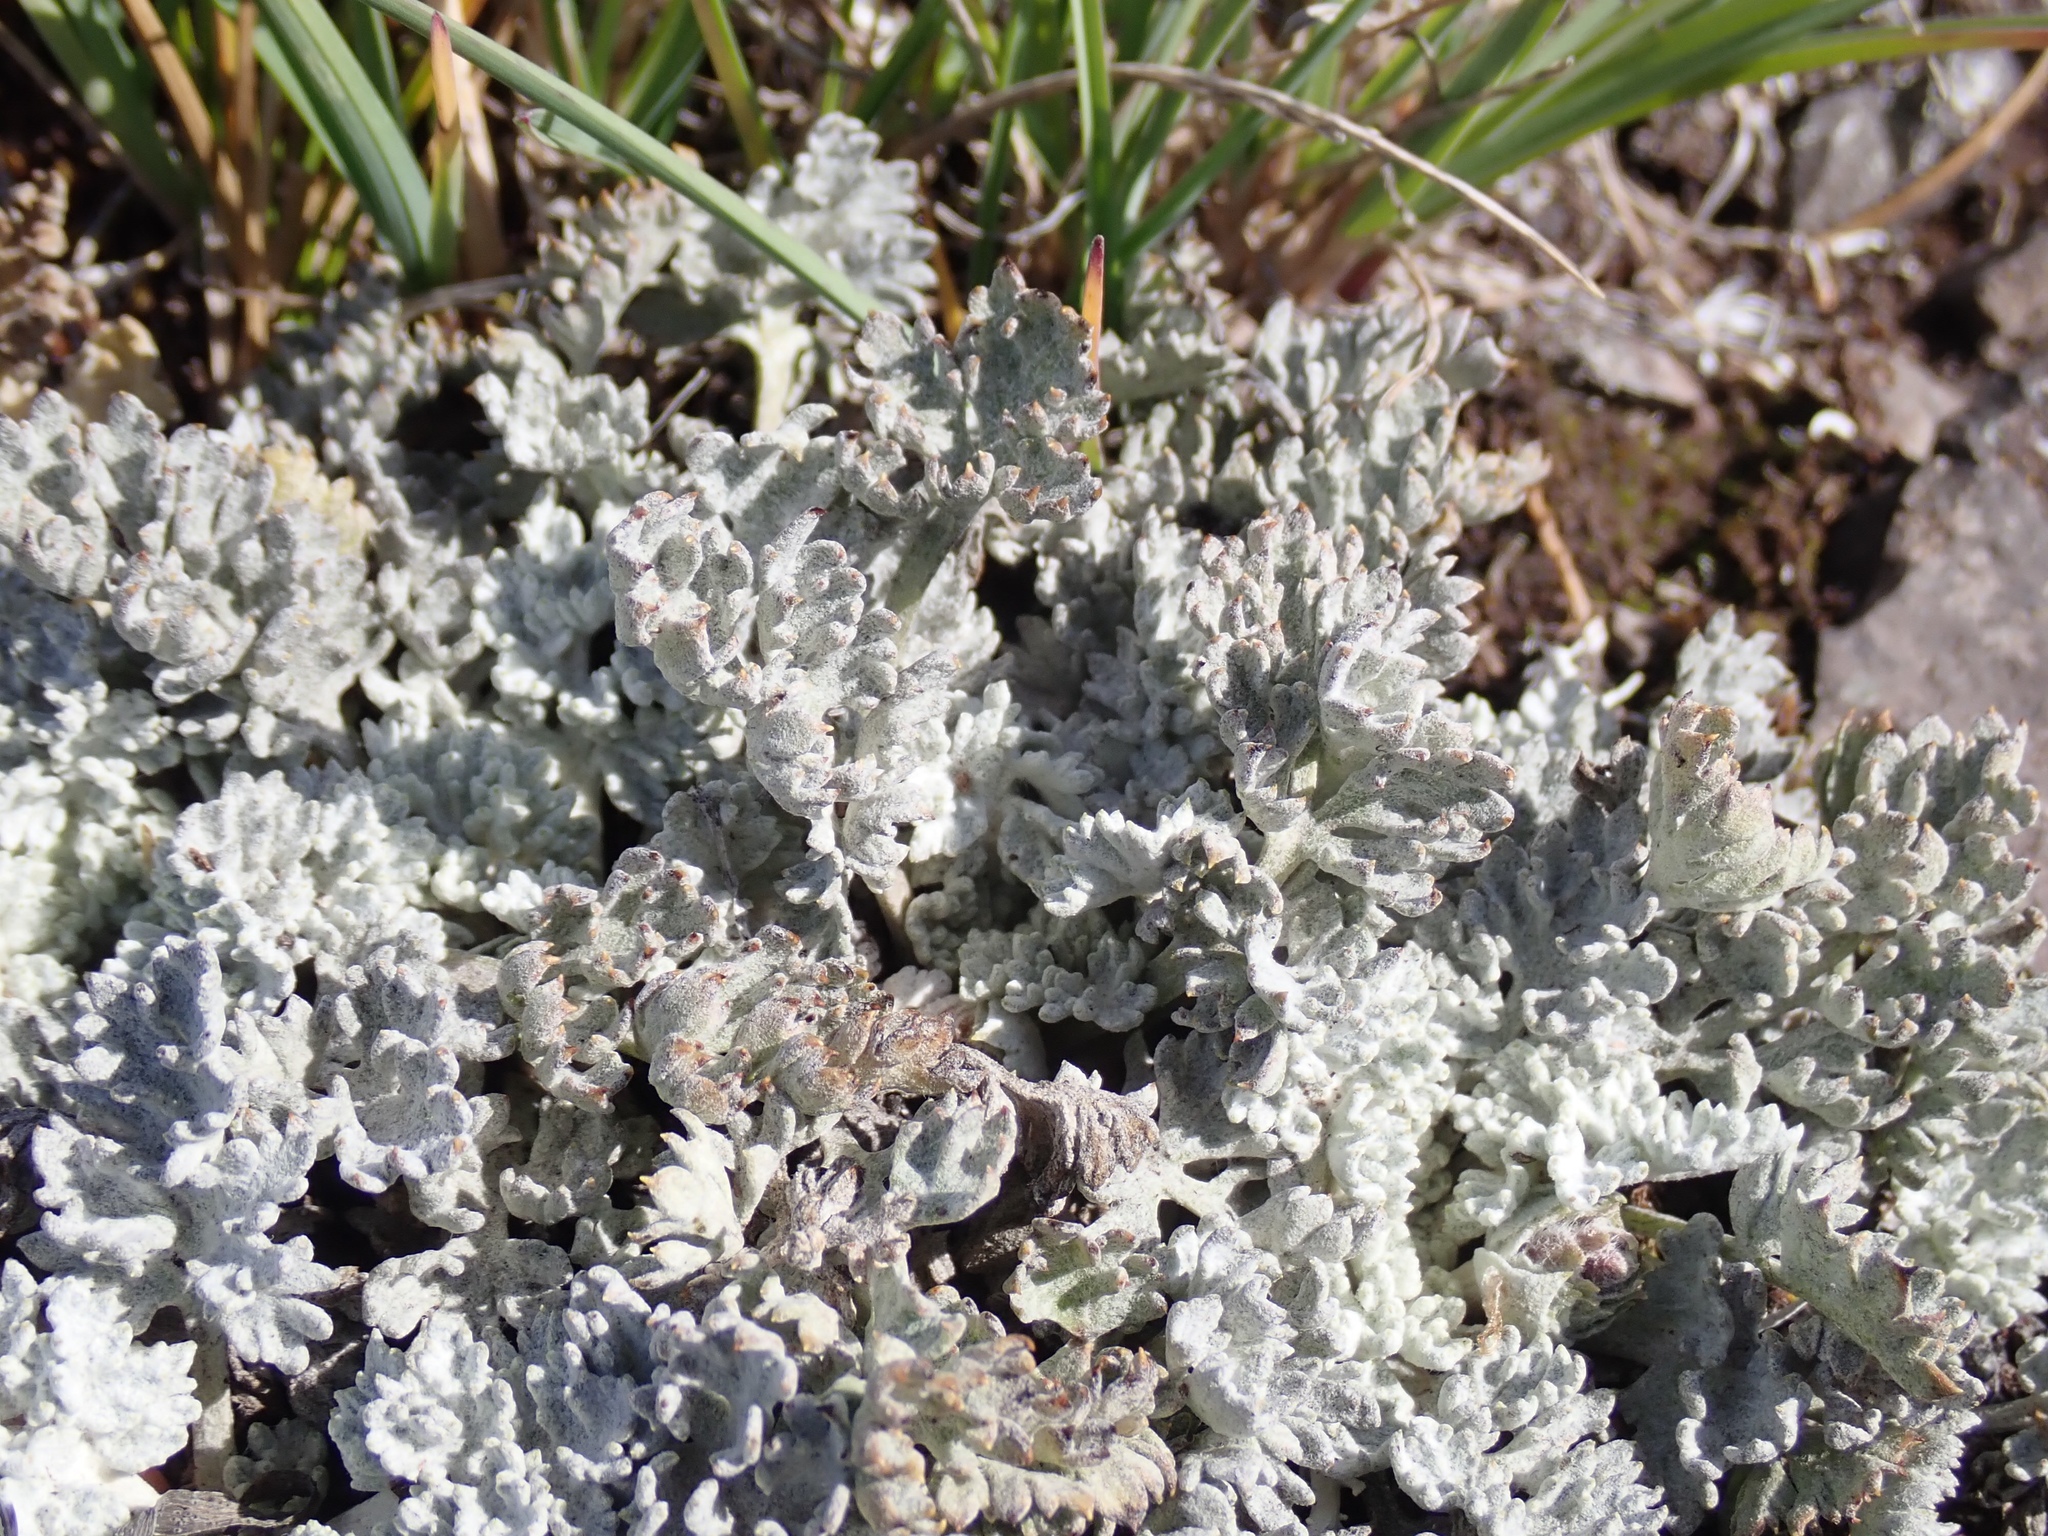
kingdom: Plantae
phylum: Tracheophyta
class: Magnoliopsida
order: Lamiales
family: Plantaginaceae
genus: Synthyris
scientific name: Synthyris lanuginosa
